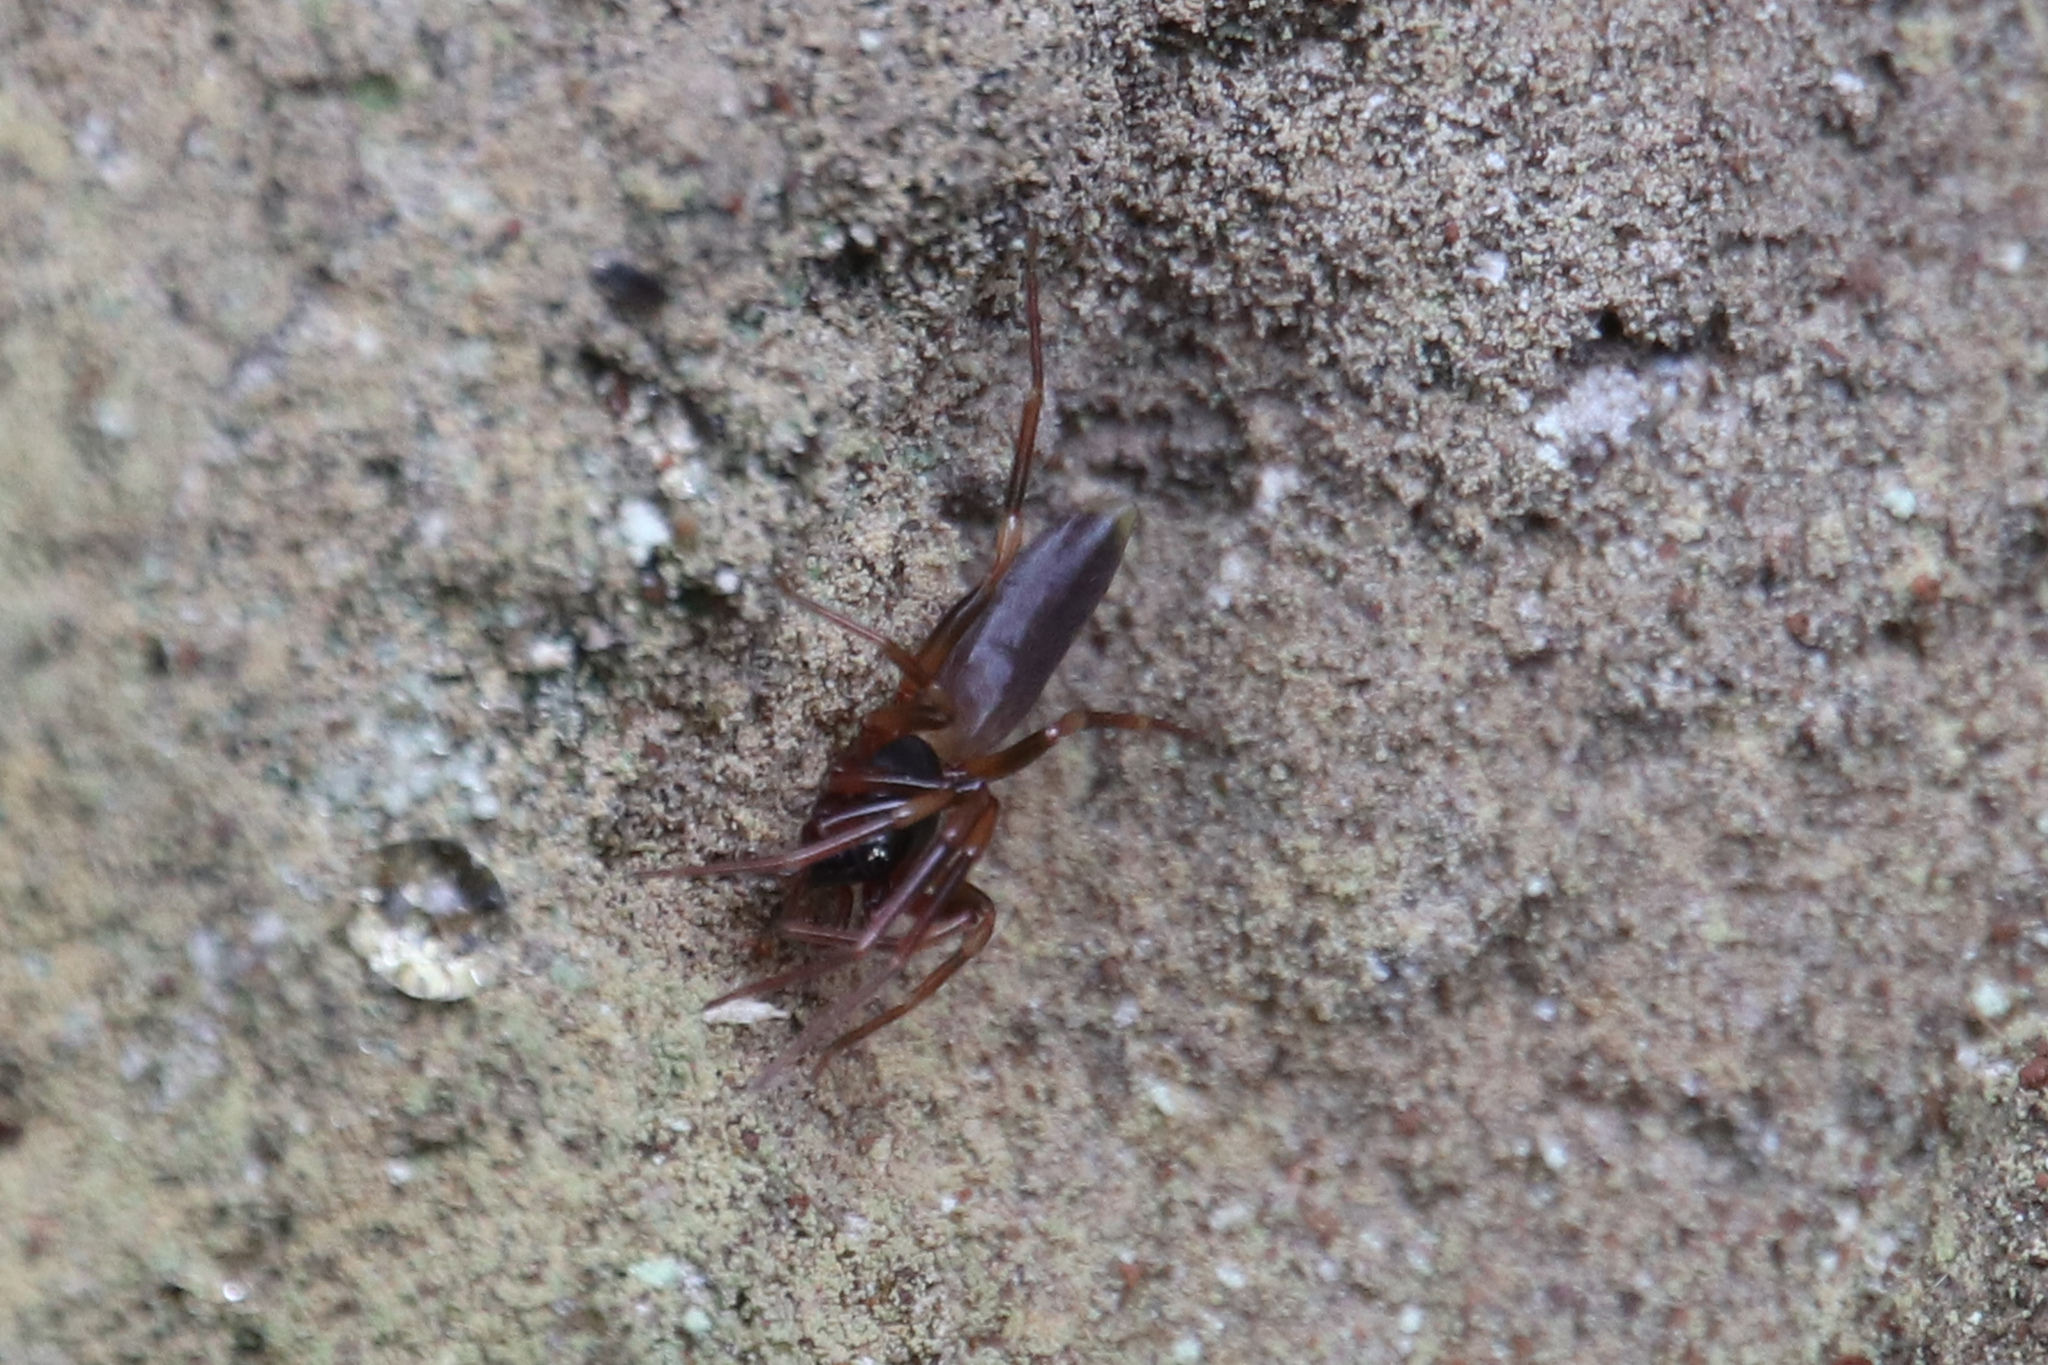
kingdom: Animalia
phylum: Arthropoda
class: Arachnida
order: Araneae
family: Dysderidae
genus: Harpactea
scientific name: Harpactea hombergi
